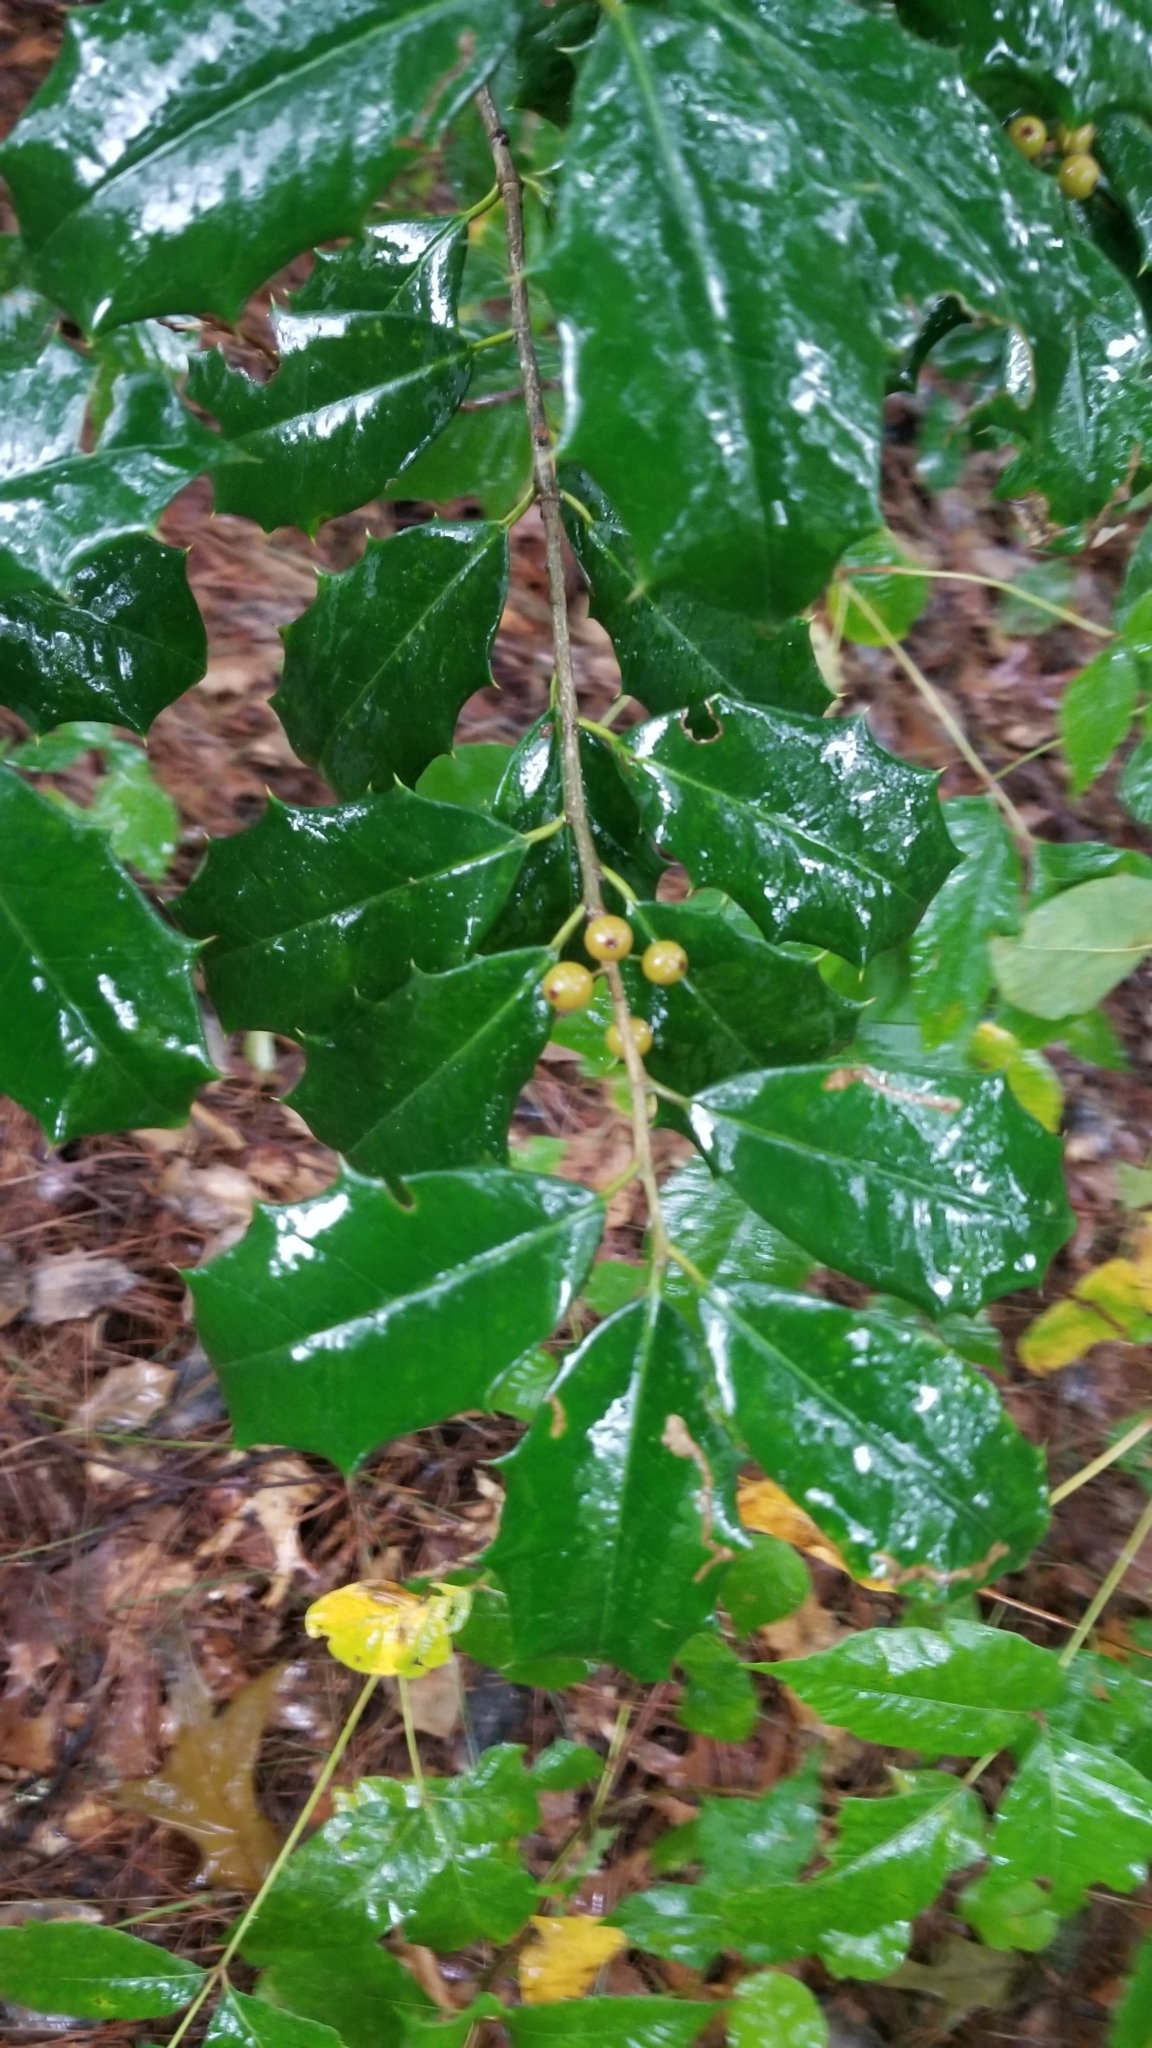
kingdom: Plantae
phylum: Tracheophyta
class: Magnoliopsida
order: Aquifoliales
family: Aquifoliaceae
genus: Ilex
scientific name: Ilex opaca
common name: American holly
